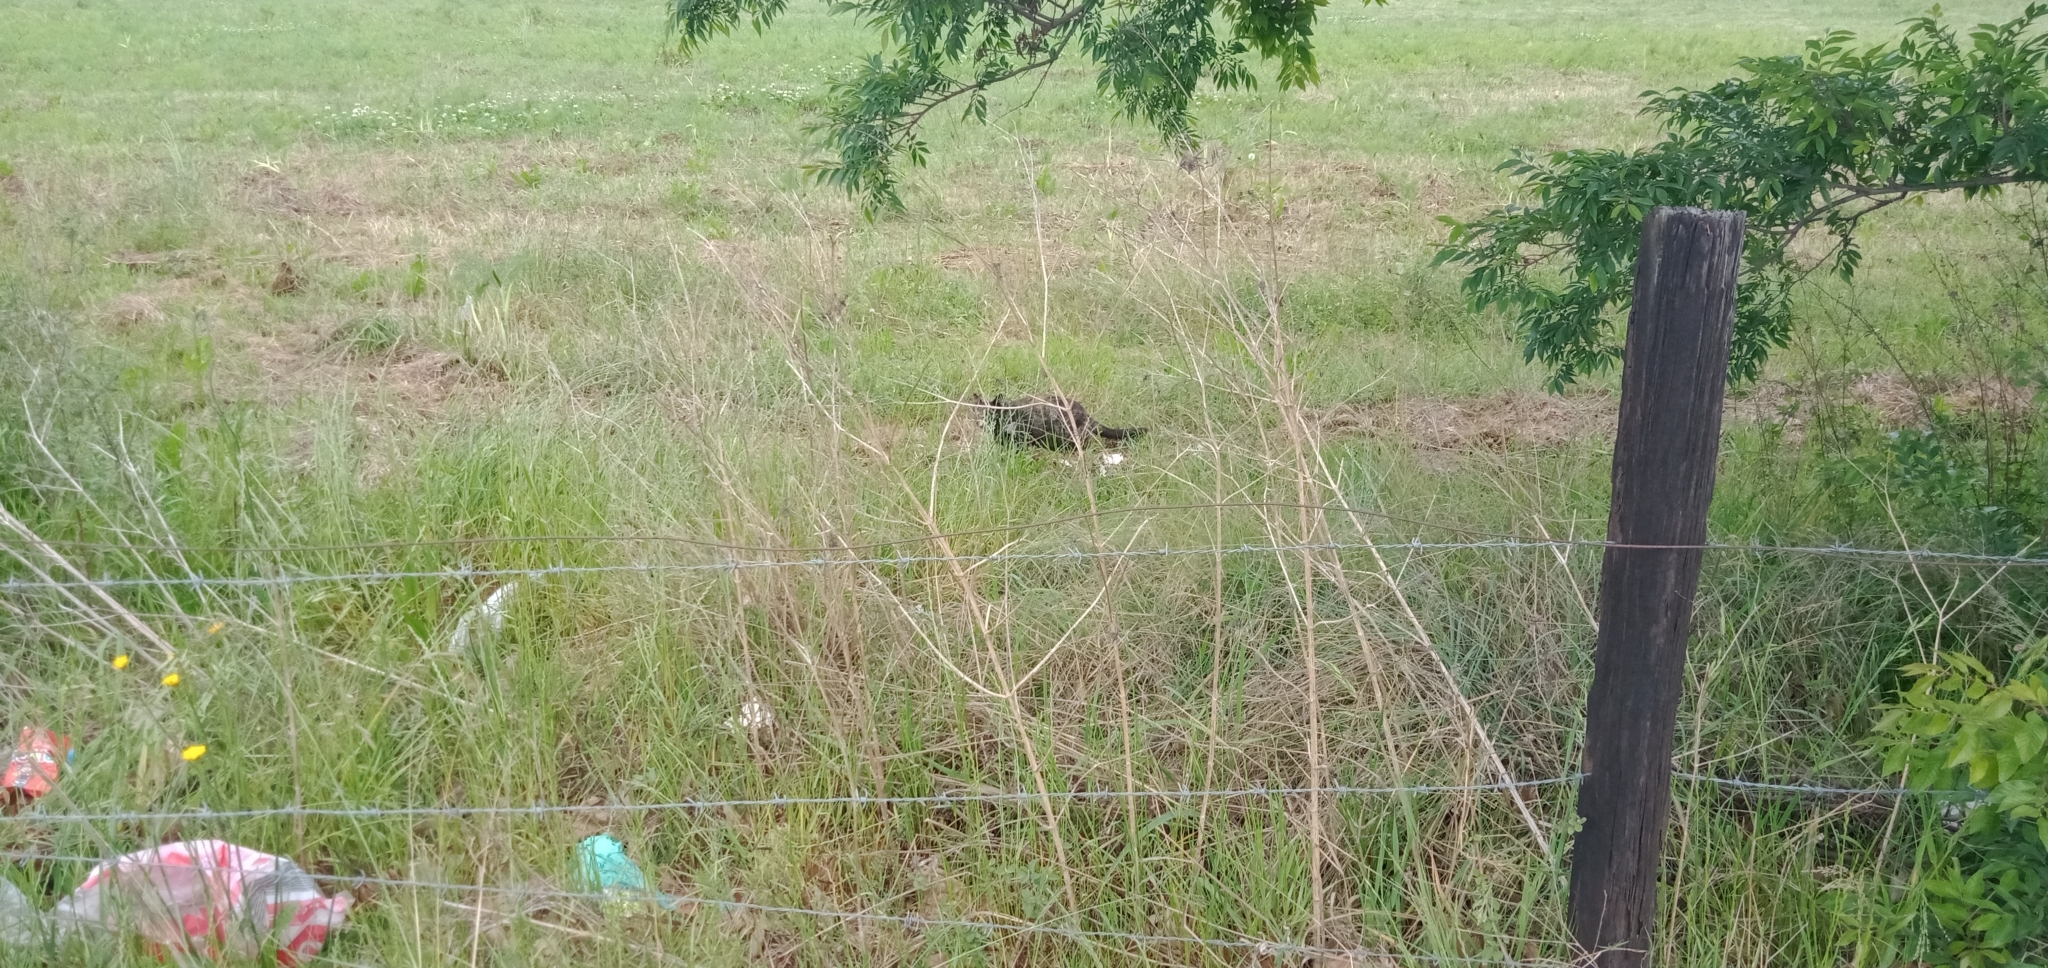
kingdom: Animalia
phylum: Chordata
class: Mammalia
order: Carnivora
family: Felidae
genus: Felis
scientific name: Felis catus
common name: Domestic cat
